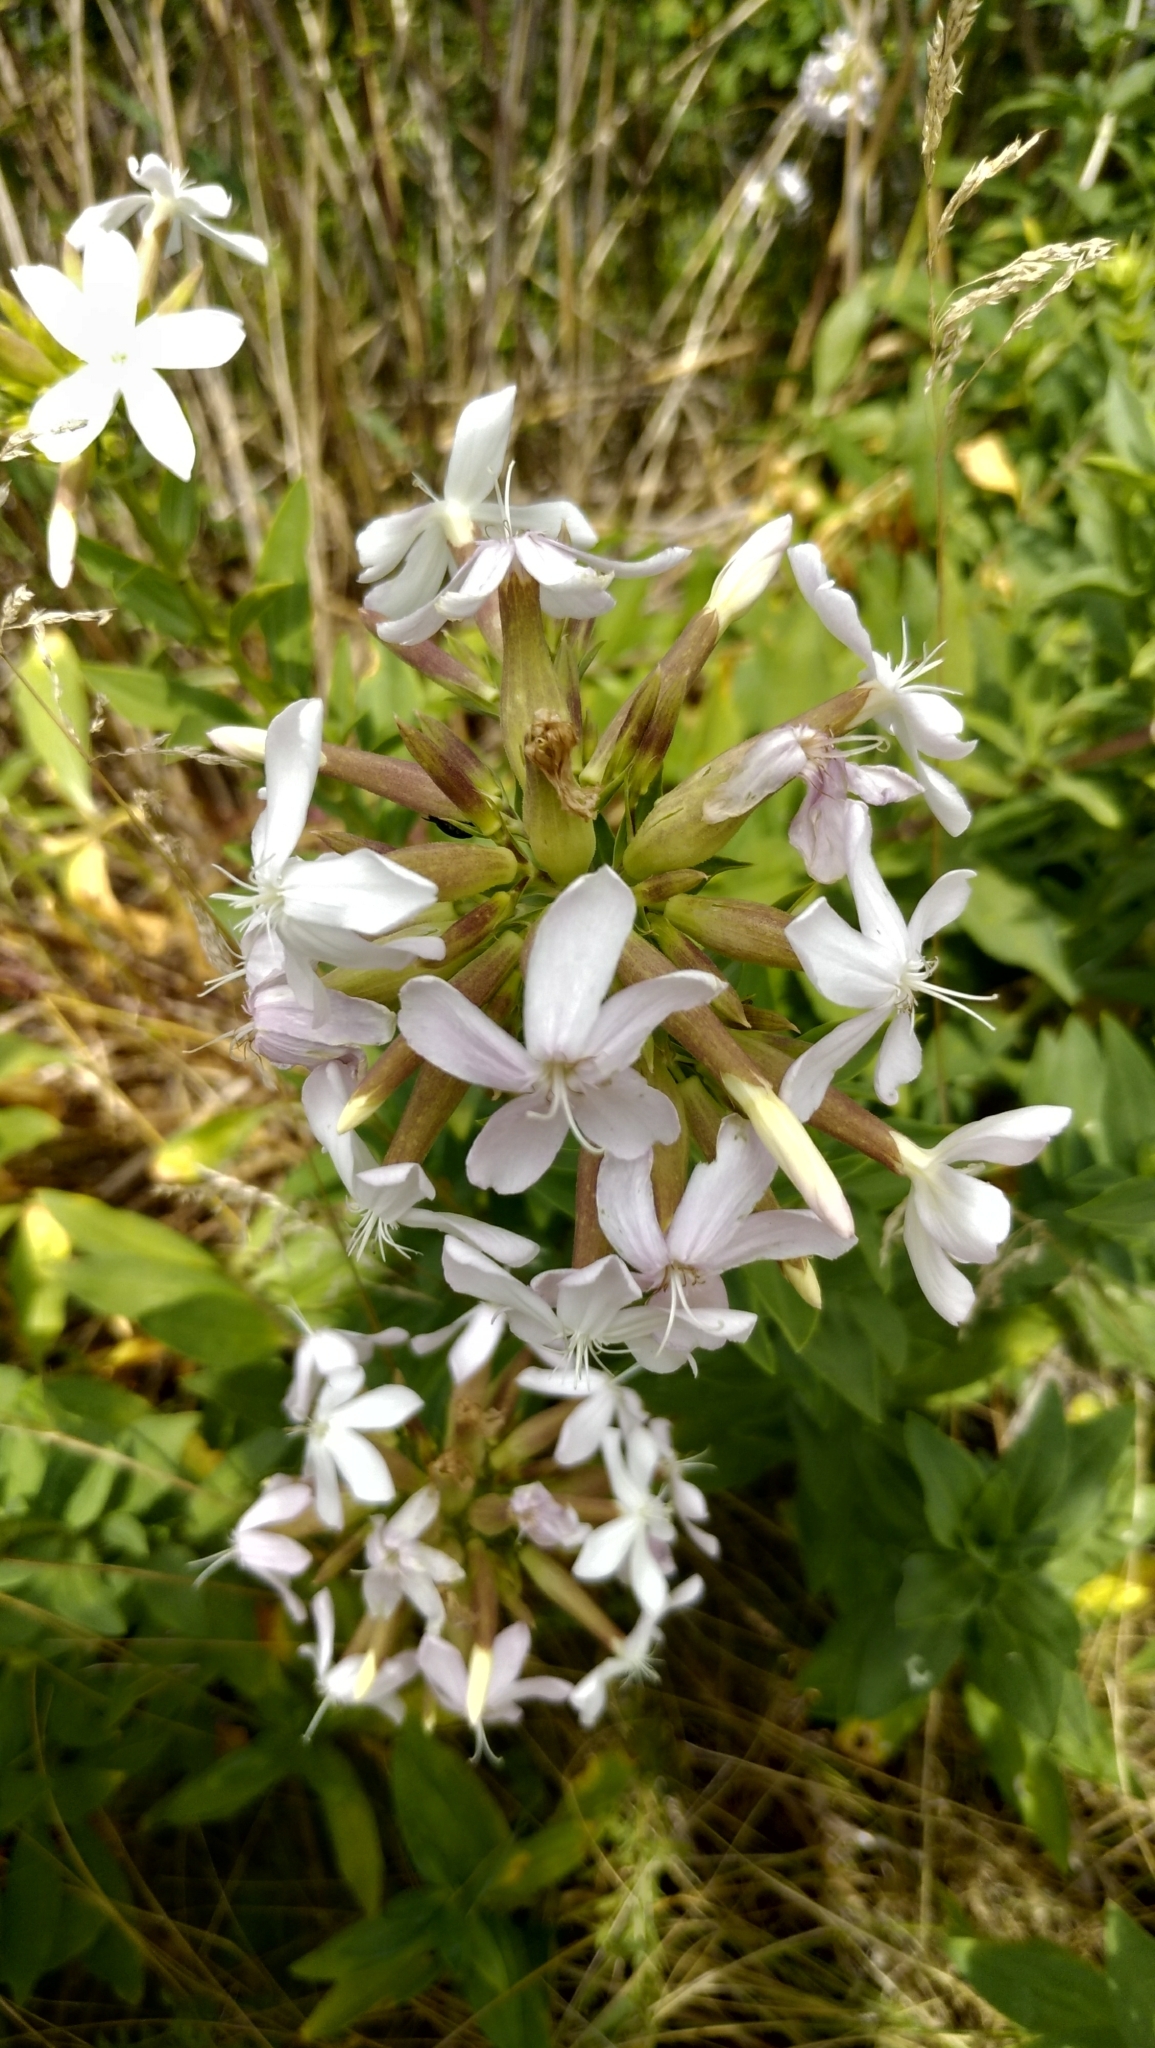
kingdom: Plantae
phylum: Tracheophyta
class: Magnoliopsida
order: Caryophyllales
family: Caryophyllaceae
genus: Saponaria
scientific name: Saponaria officinalis
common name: Soapwort
